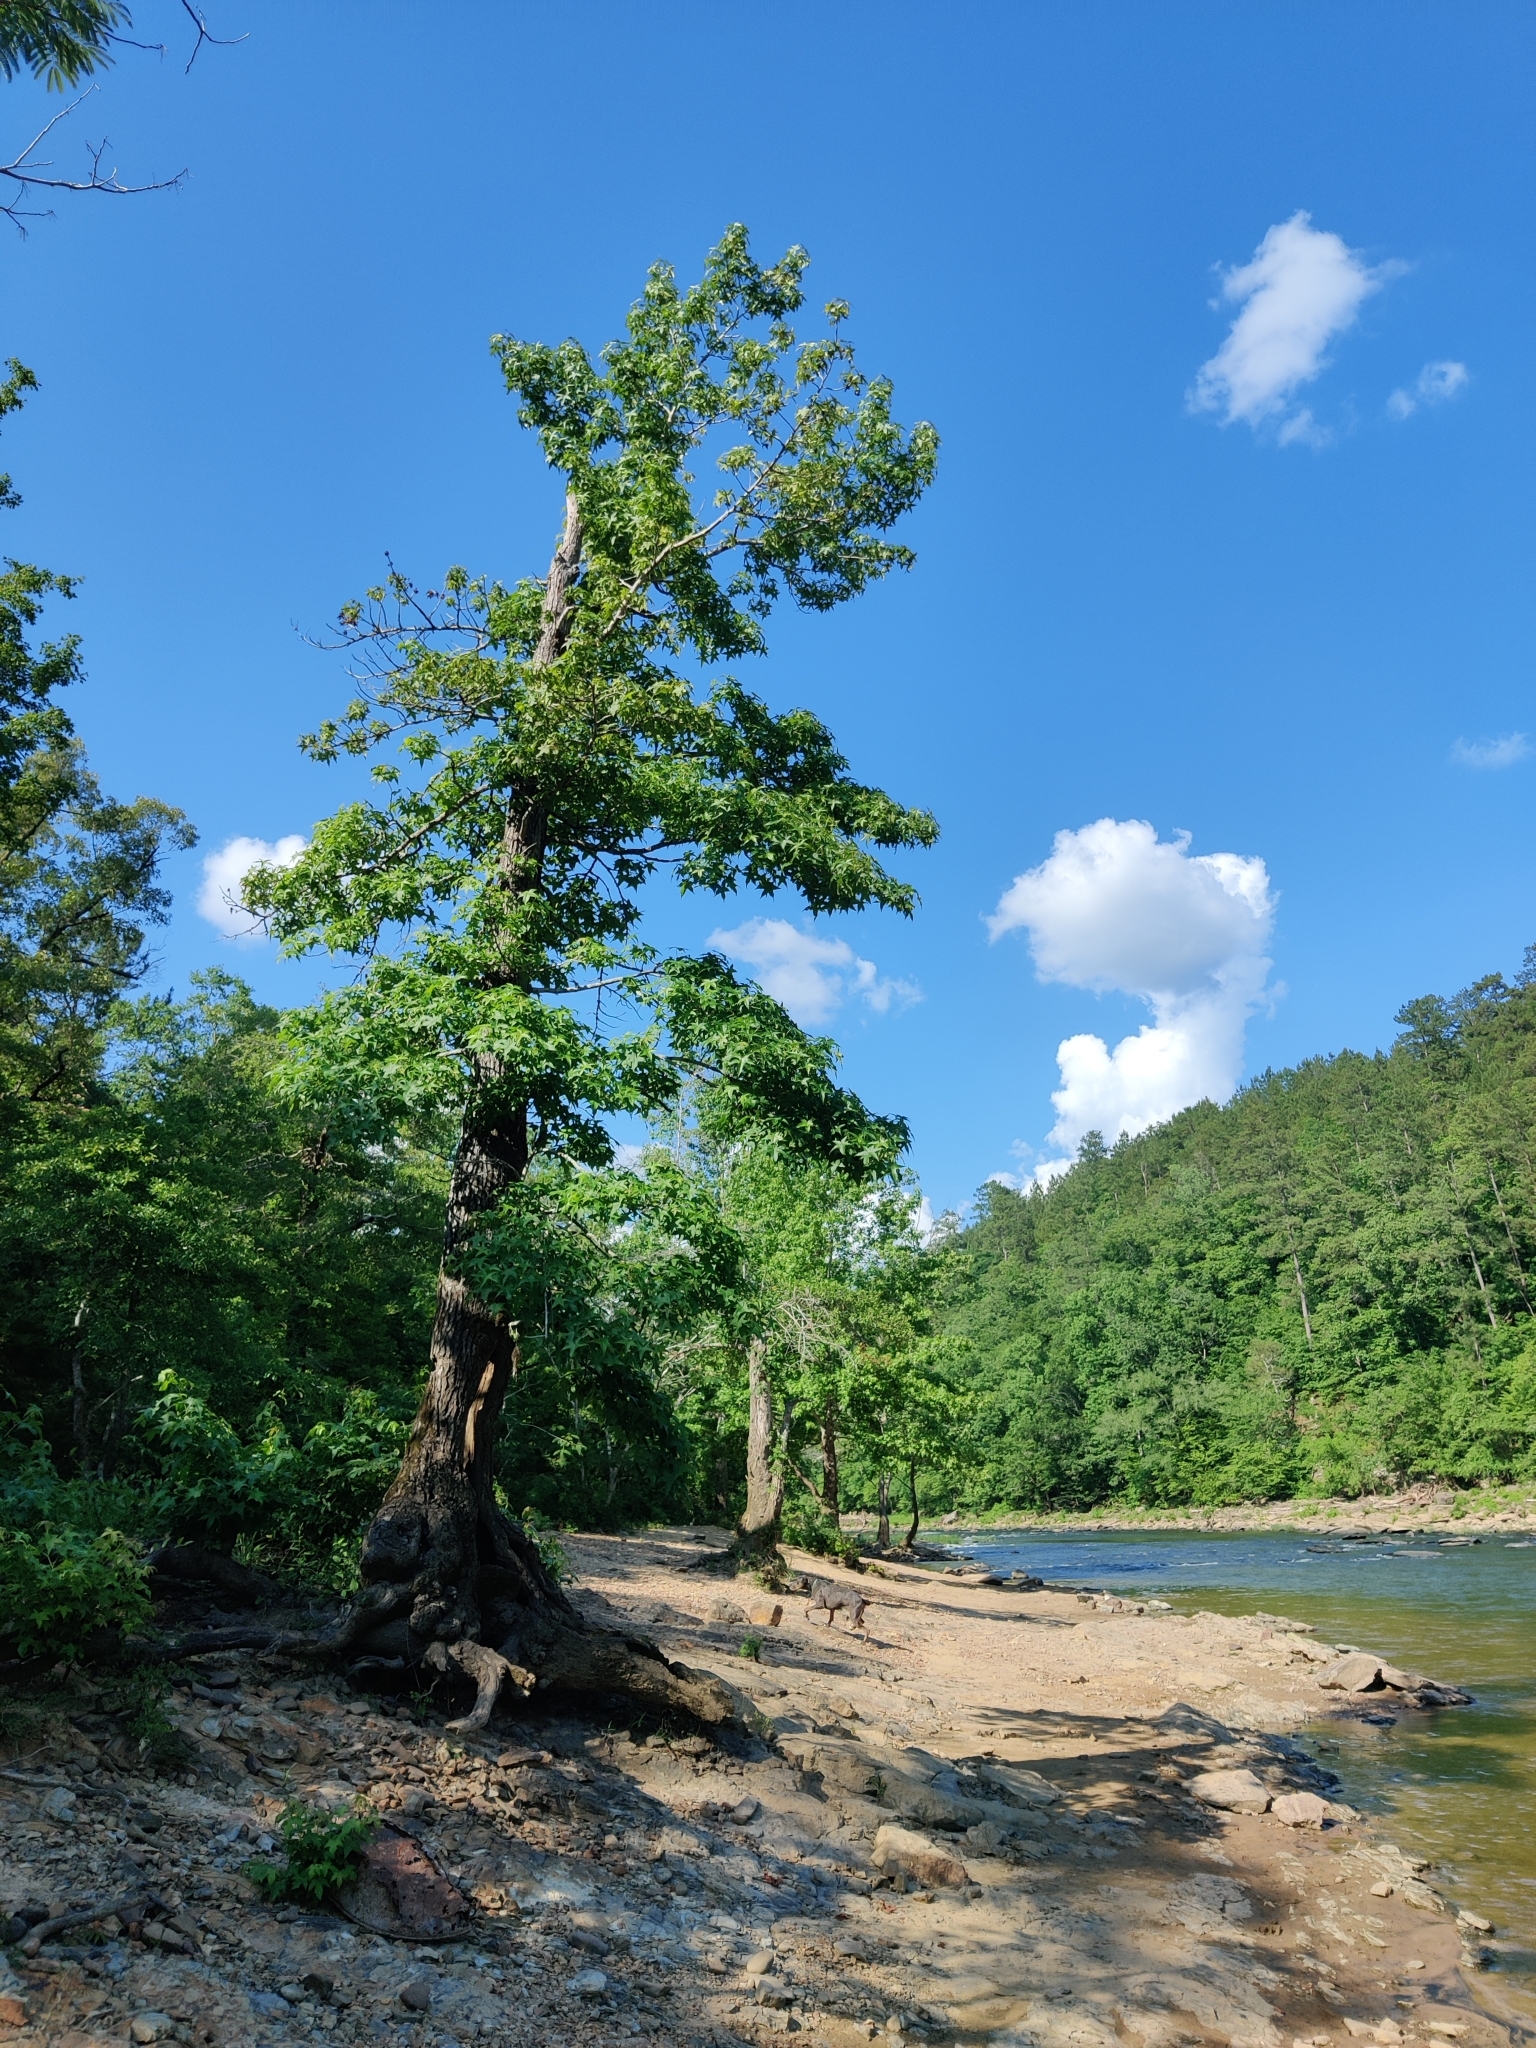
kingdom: Plantae
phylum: Tracheophyta
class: Magnoliopsida
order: Saxifragales
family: Altingiaceae
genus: Liquidambar
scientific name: Liquidambar styraciflua
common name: Sweet gum
